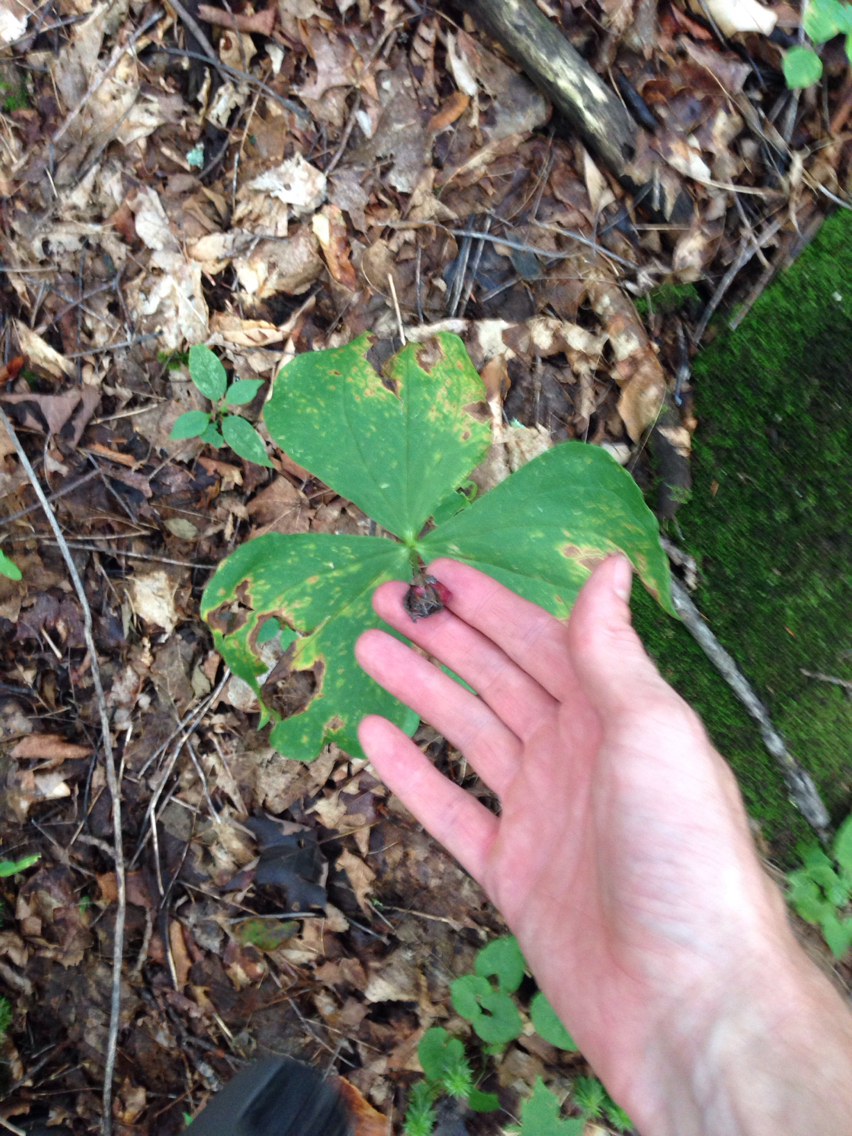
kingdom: Plantae
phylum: Tracheophyta
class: Liliopsida
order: Liliales
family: Melanthiaceae
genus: Trillium
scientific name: Trillium erectum
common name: Purple trillium
